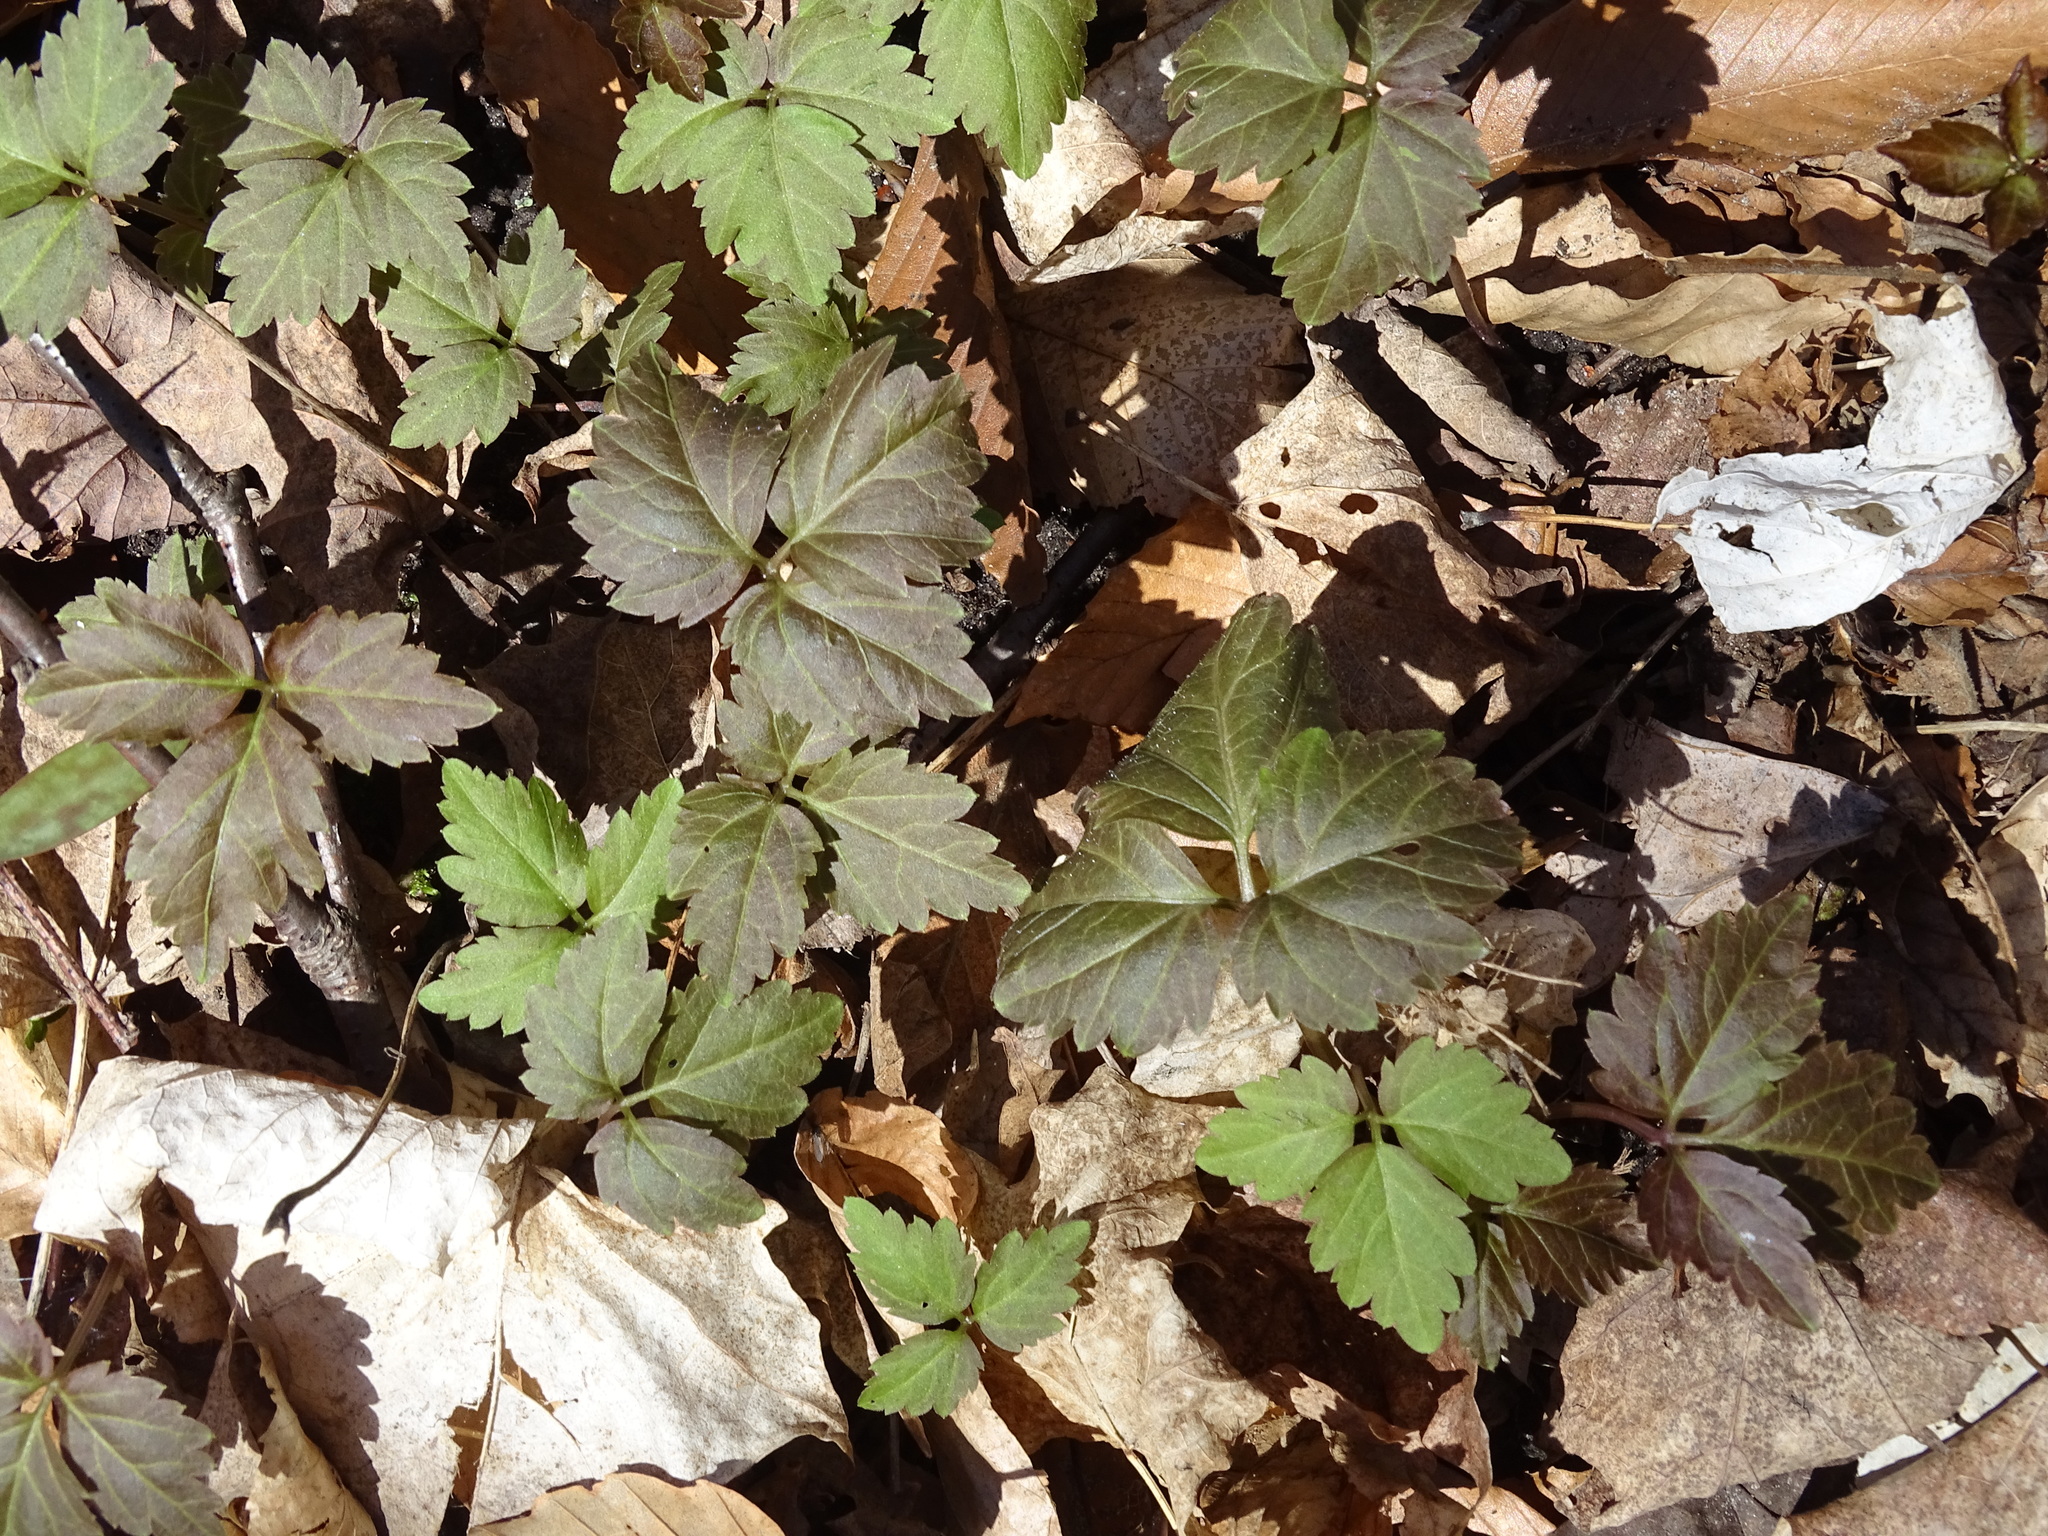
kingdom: Plantae
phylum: Tracheophyta
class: Magnoliopsida
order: Brassicales
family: Brassicaceae
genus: Cardamine
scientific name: Cardamine diphylla
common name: Broad-leaved toothwort
